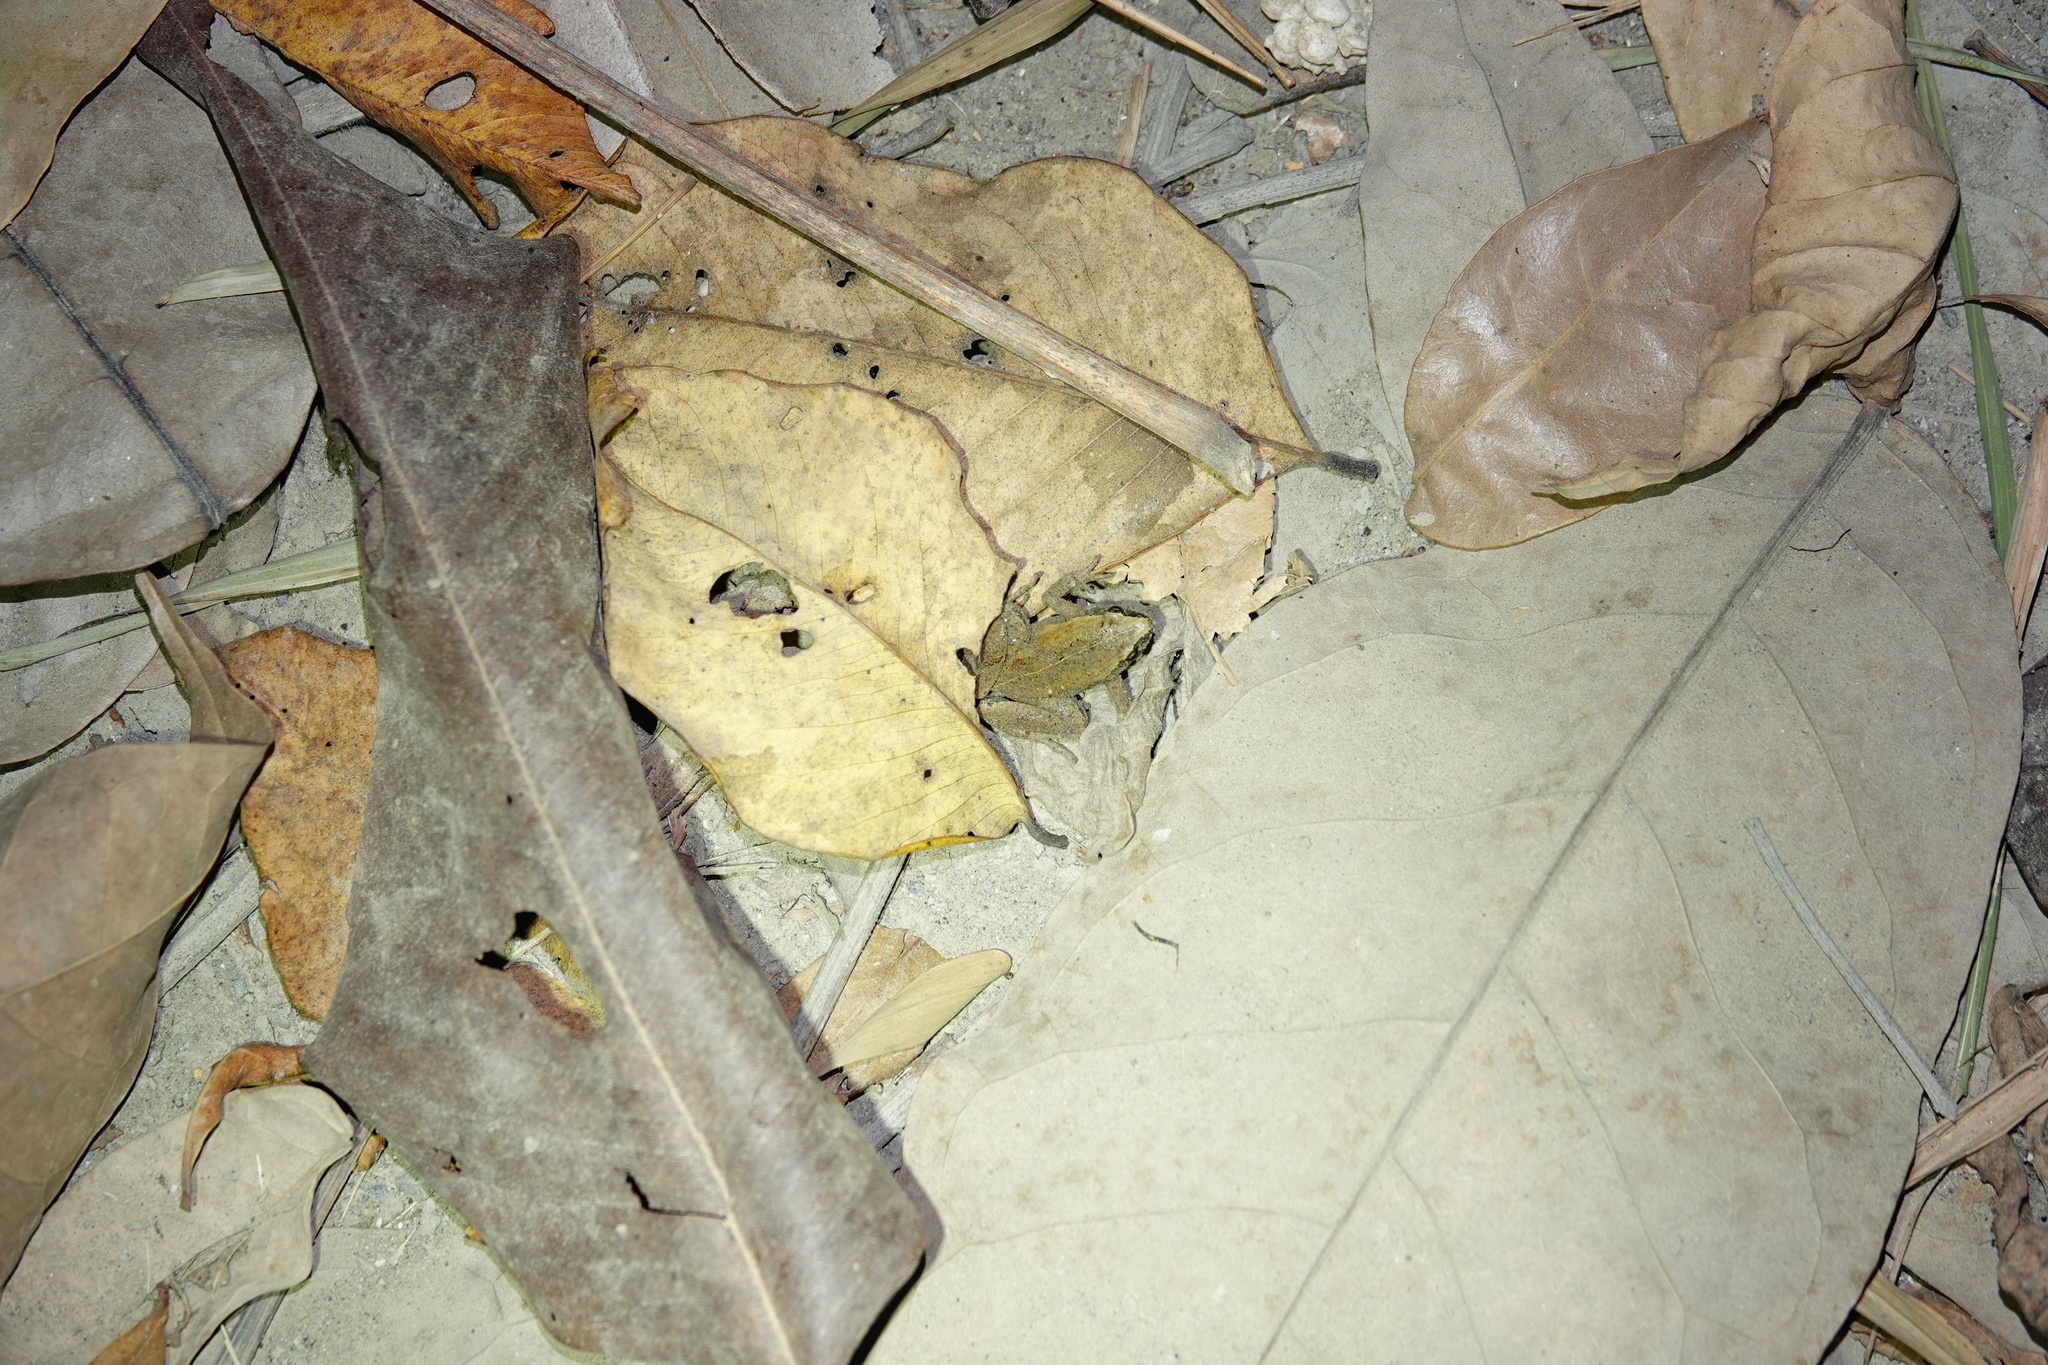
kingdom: Animalia
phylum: Chordata
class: Amphibia
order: Anura
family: Microhylidae
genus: Microhyla
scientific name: Microhyla heymonsi
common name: Taiwan rice frog,dark sided chorus frog
